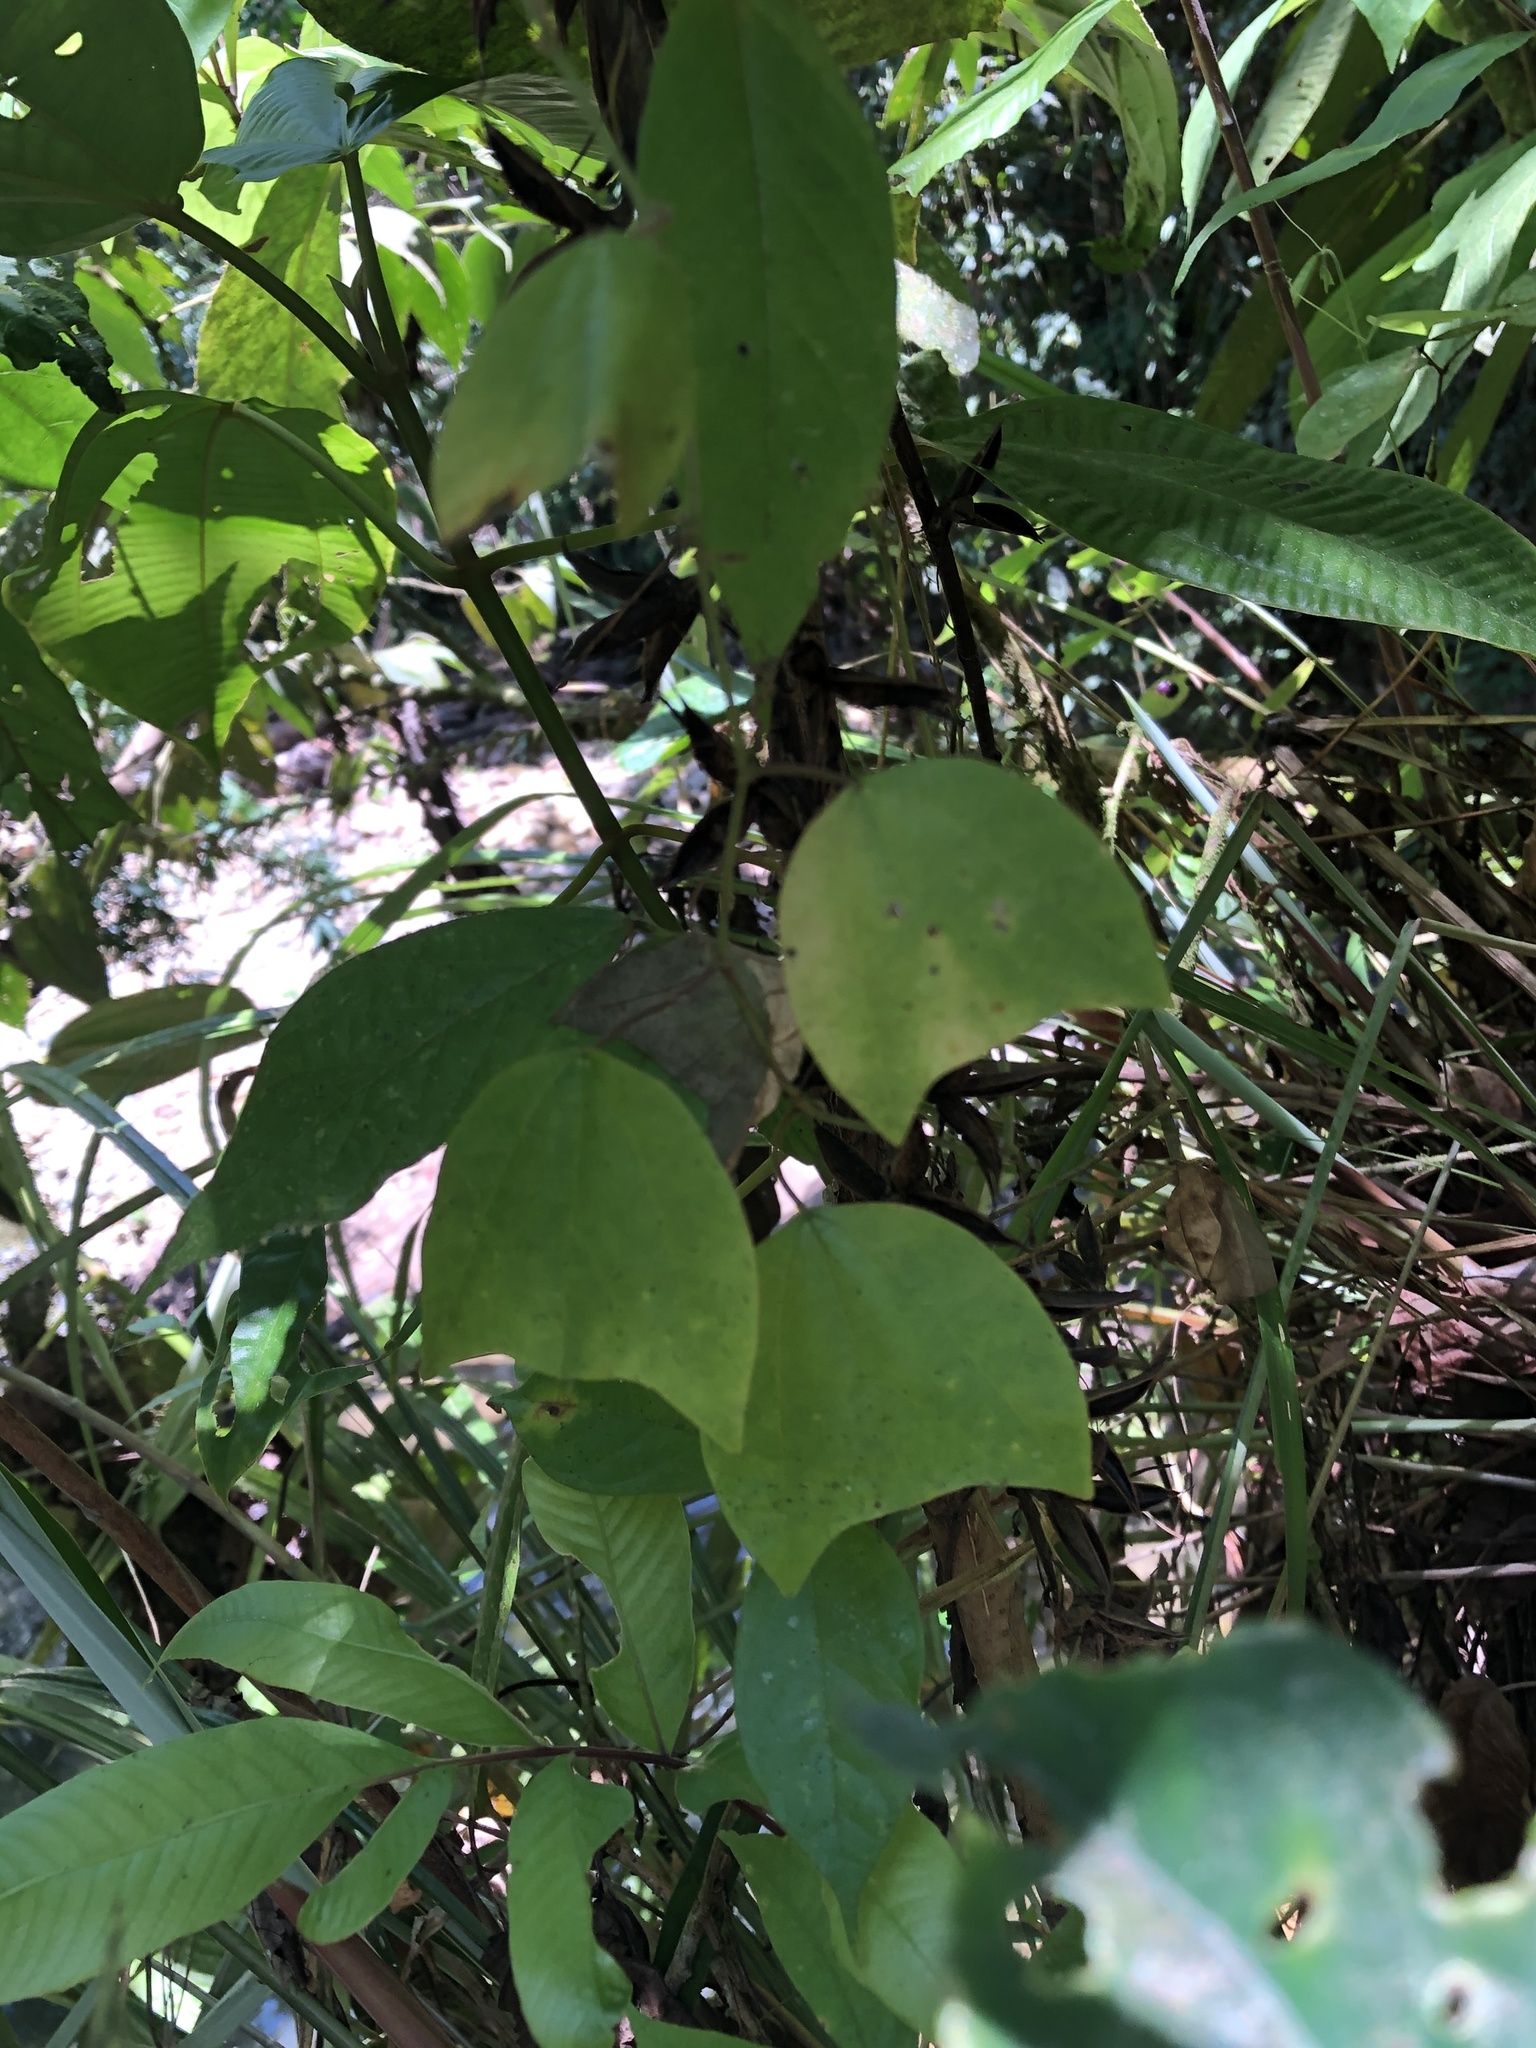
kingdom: Plantae
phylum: Tracheophyta
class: Magnoliopsida
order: Malpighiales
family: Passifloraceae
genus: Passiflora
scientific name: Passiflora candollei
